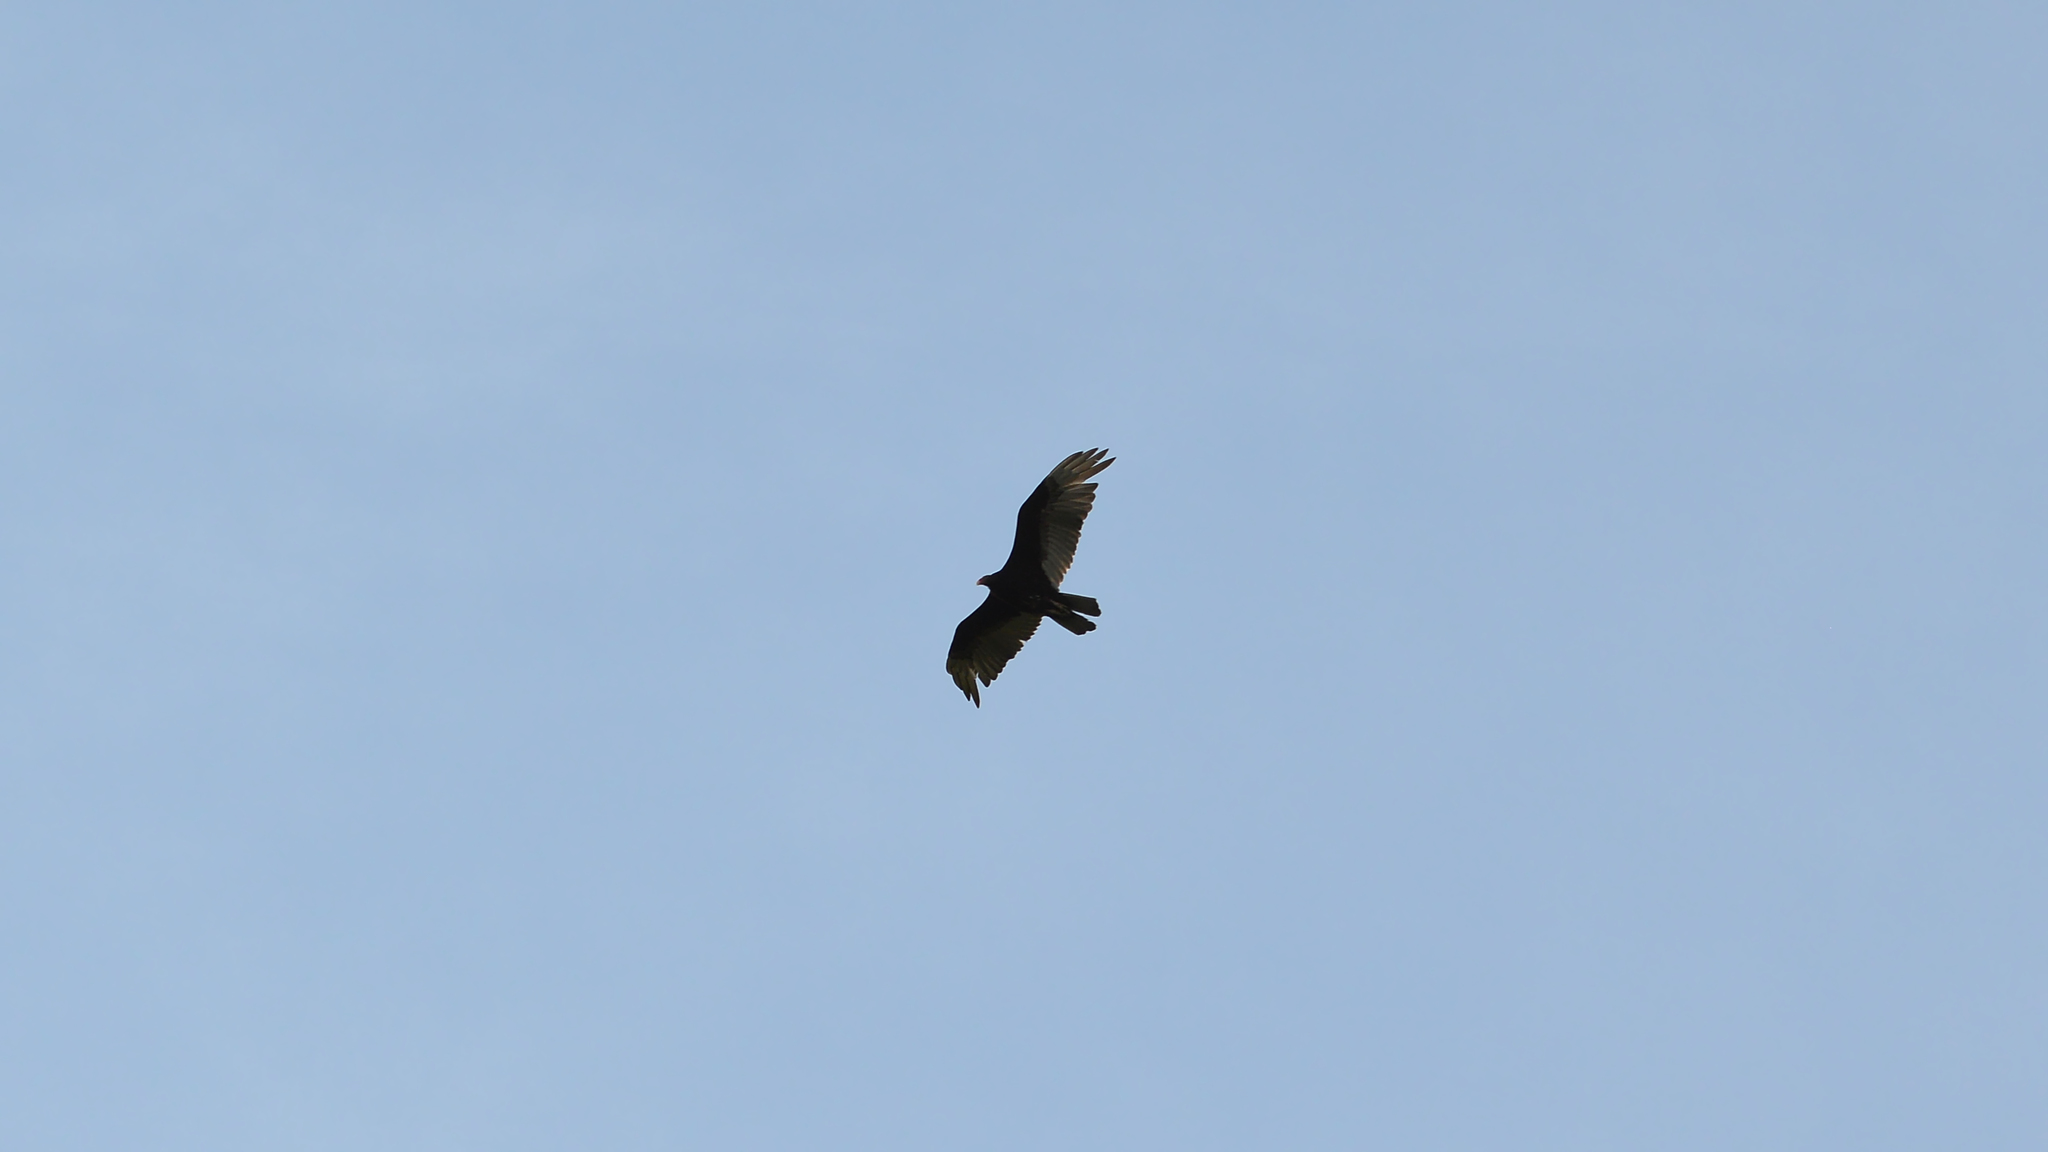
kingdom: Animalia
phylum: Chordata
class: Aves
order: Accipitriformes
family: Cathartidae
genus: Cathartes
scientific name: Cathartes aura
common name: Turkey vulture
